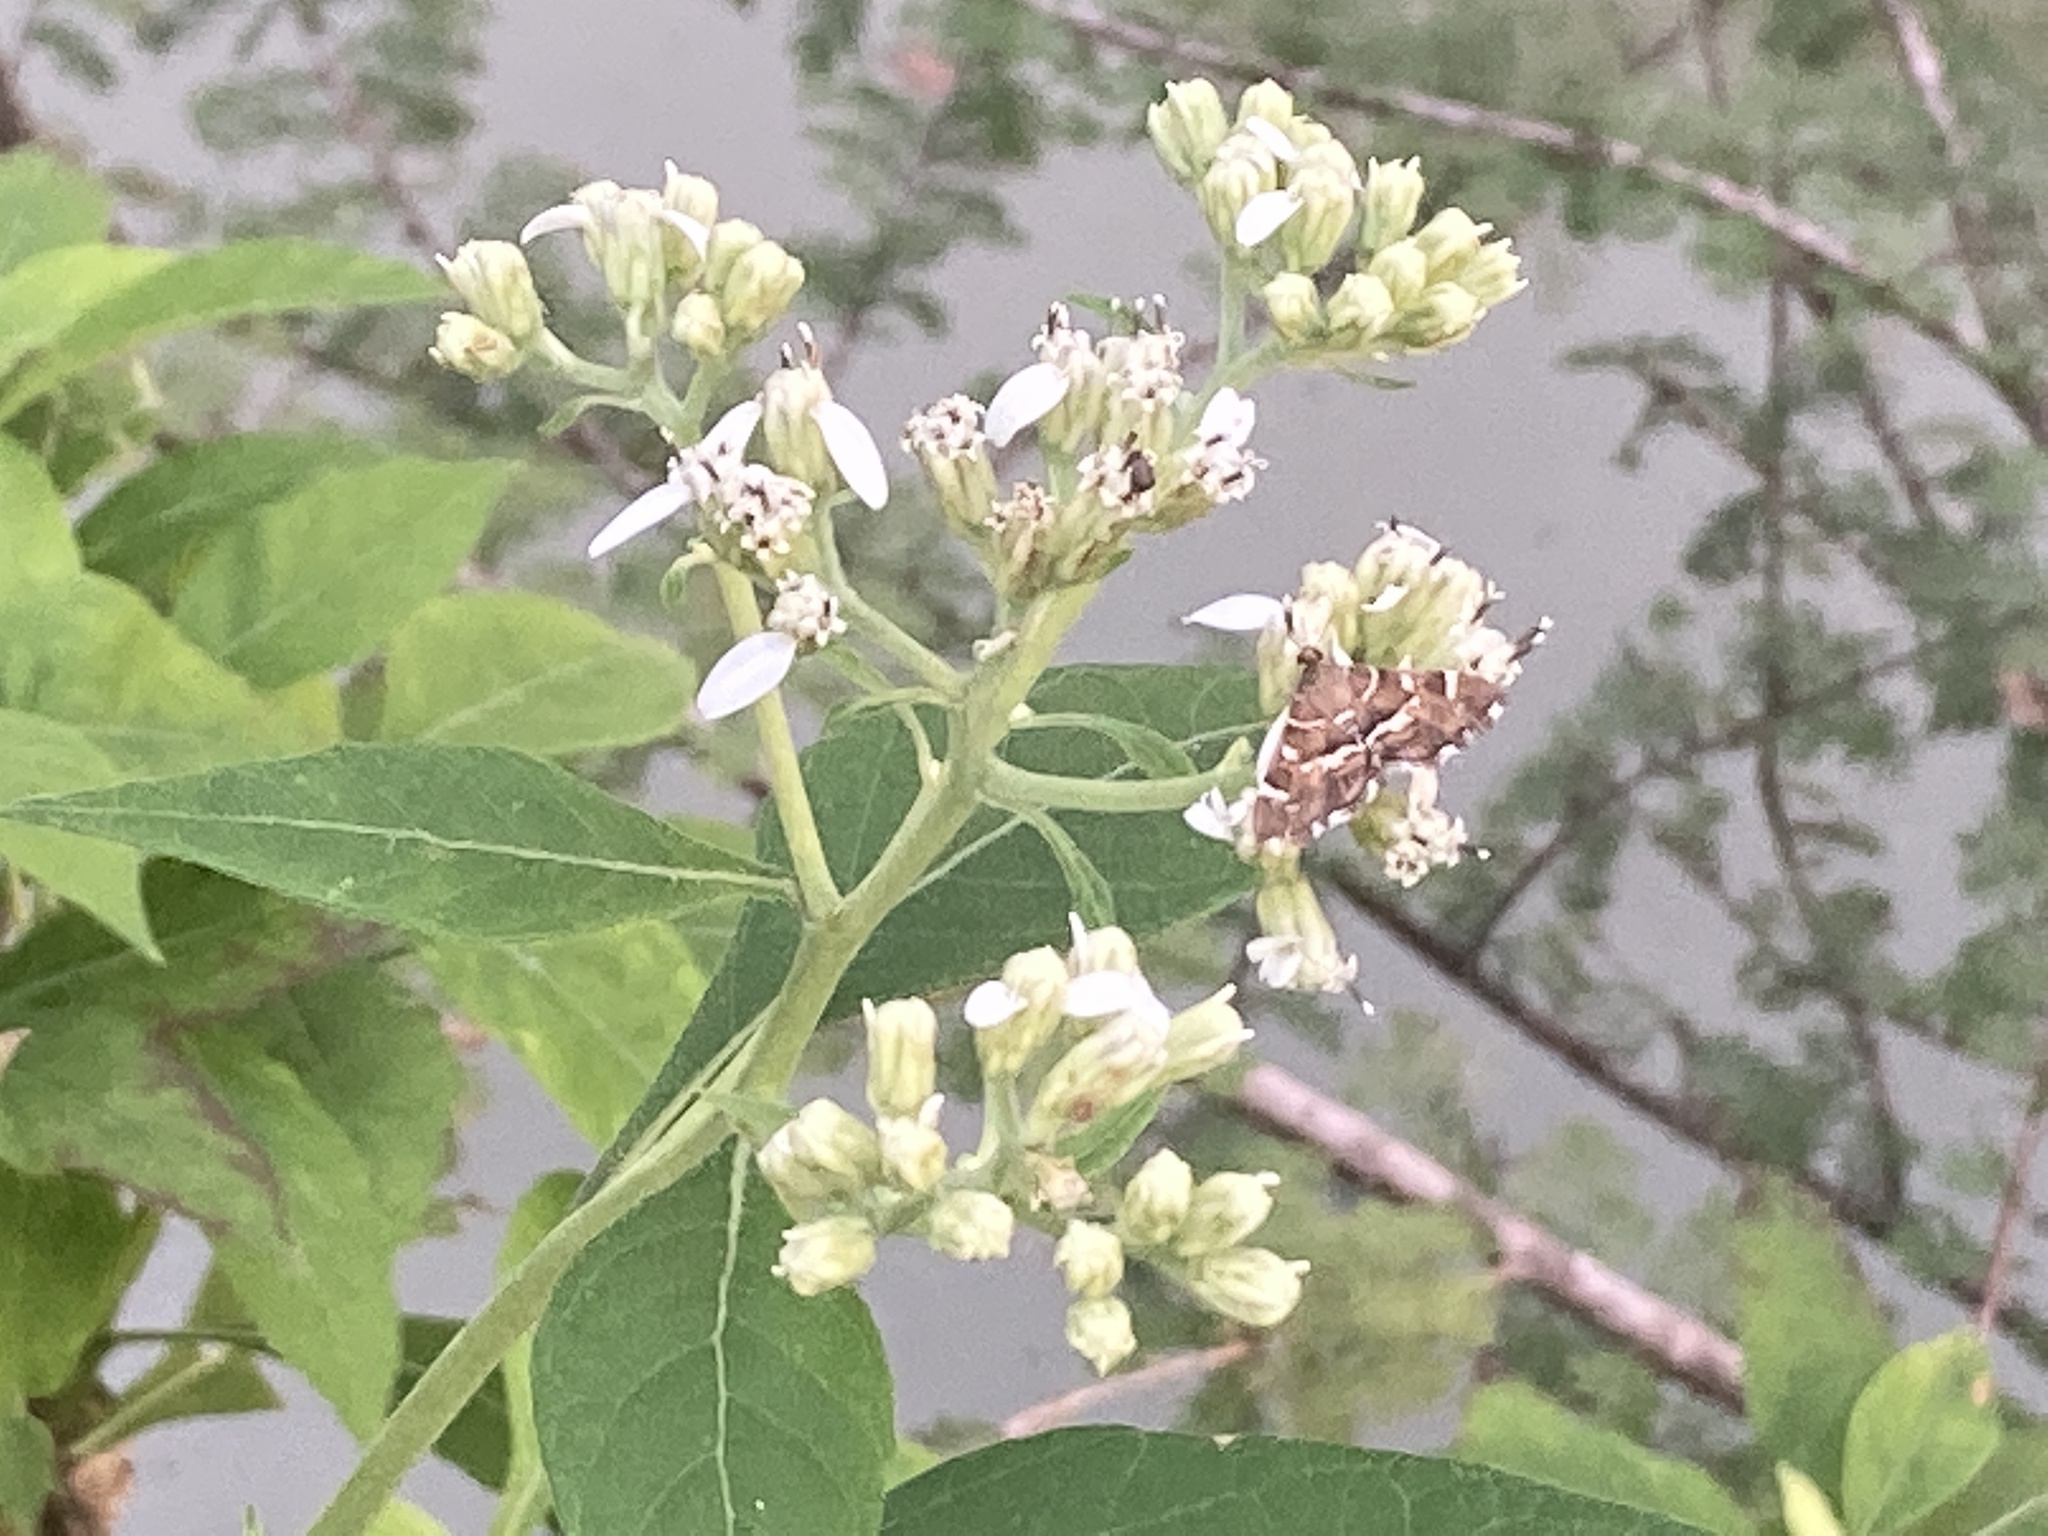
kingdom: Animalia
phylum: Arthropoda
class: Insecta
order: Lepidoptera
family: Crambidae
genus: Hymenia
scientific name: Hymenia perspectalis
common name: Spotted beet webworm
